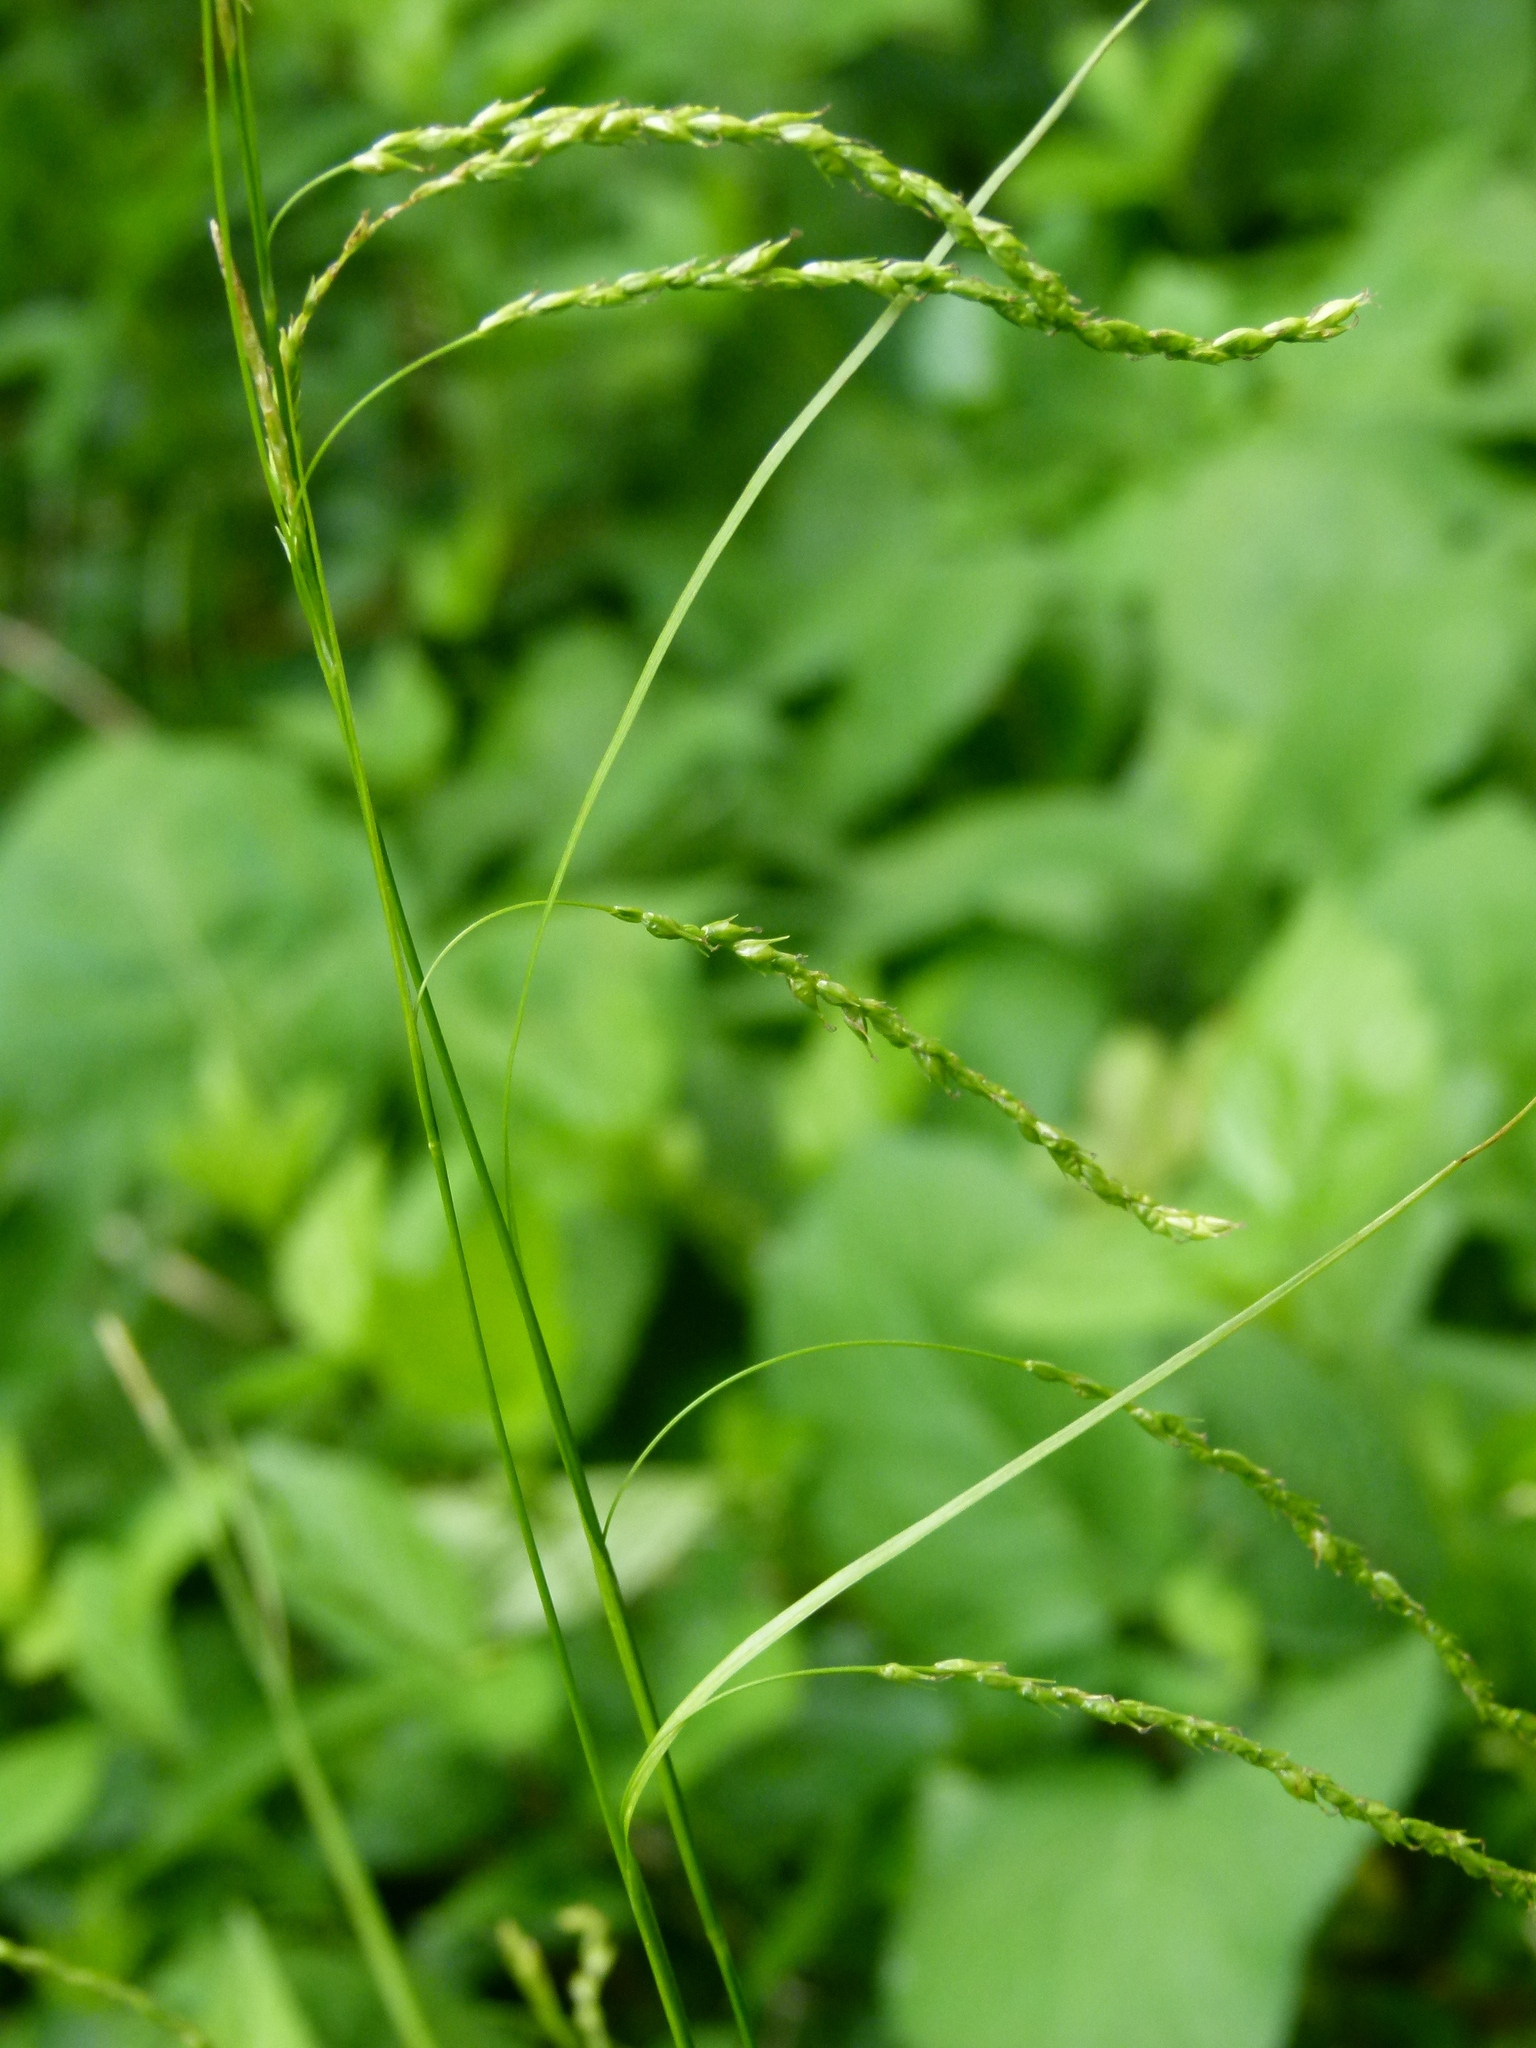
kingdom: Plantae
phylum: Tracheophyta
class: Liliopsida
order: Poales
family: Cyperaceae
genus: Carex
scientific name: Carex arctata
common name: Black sedge
